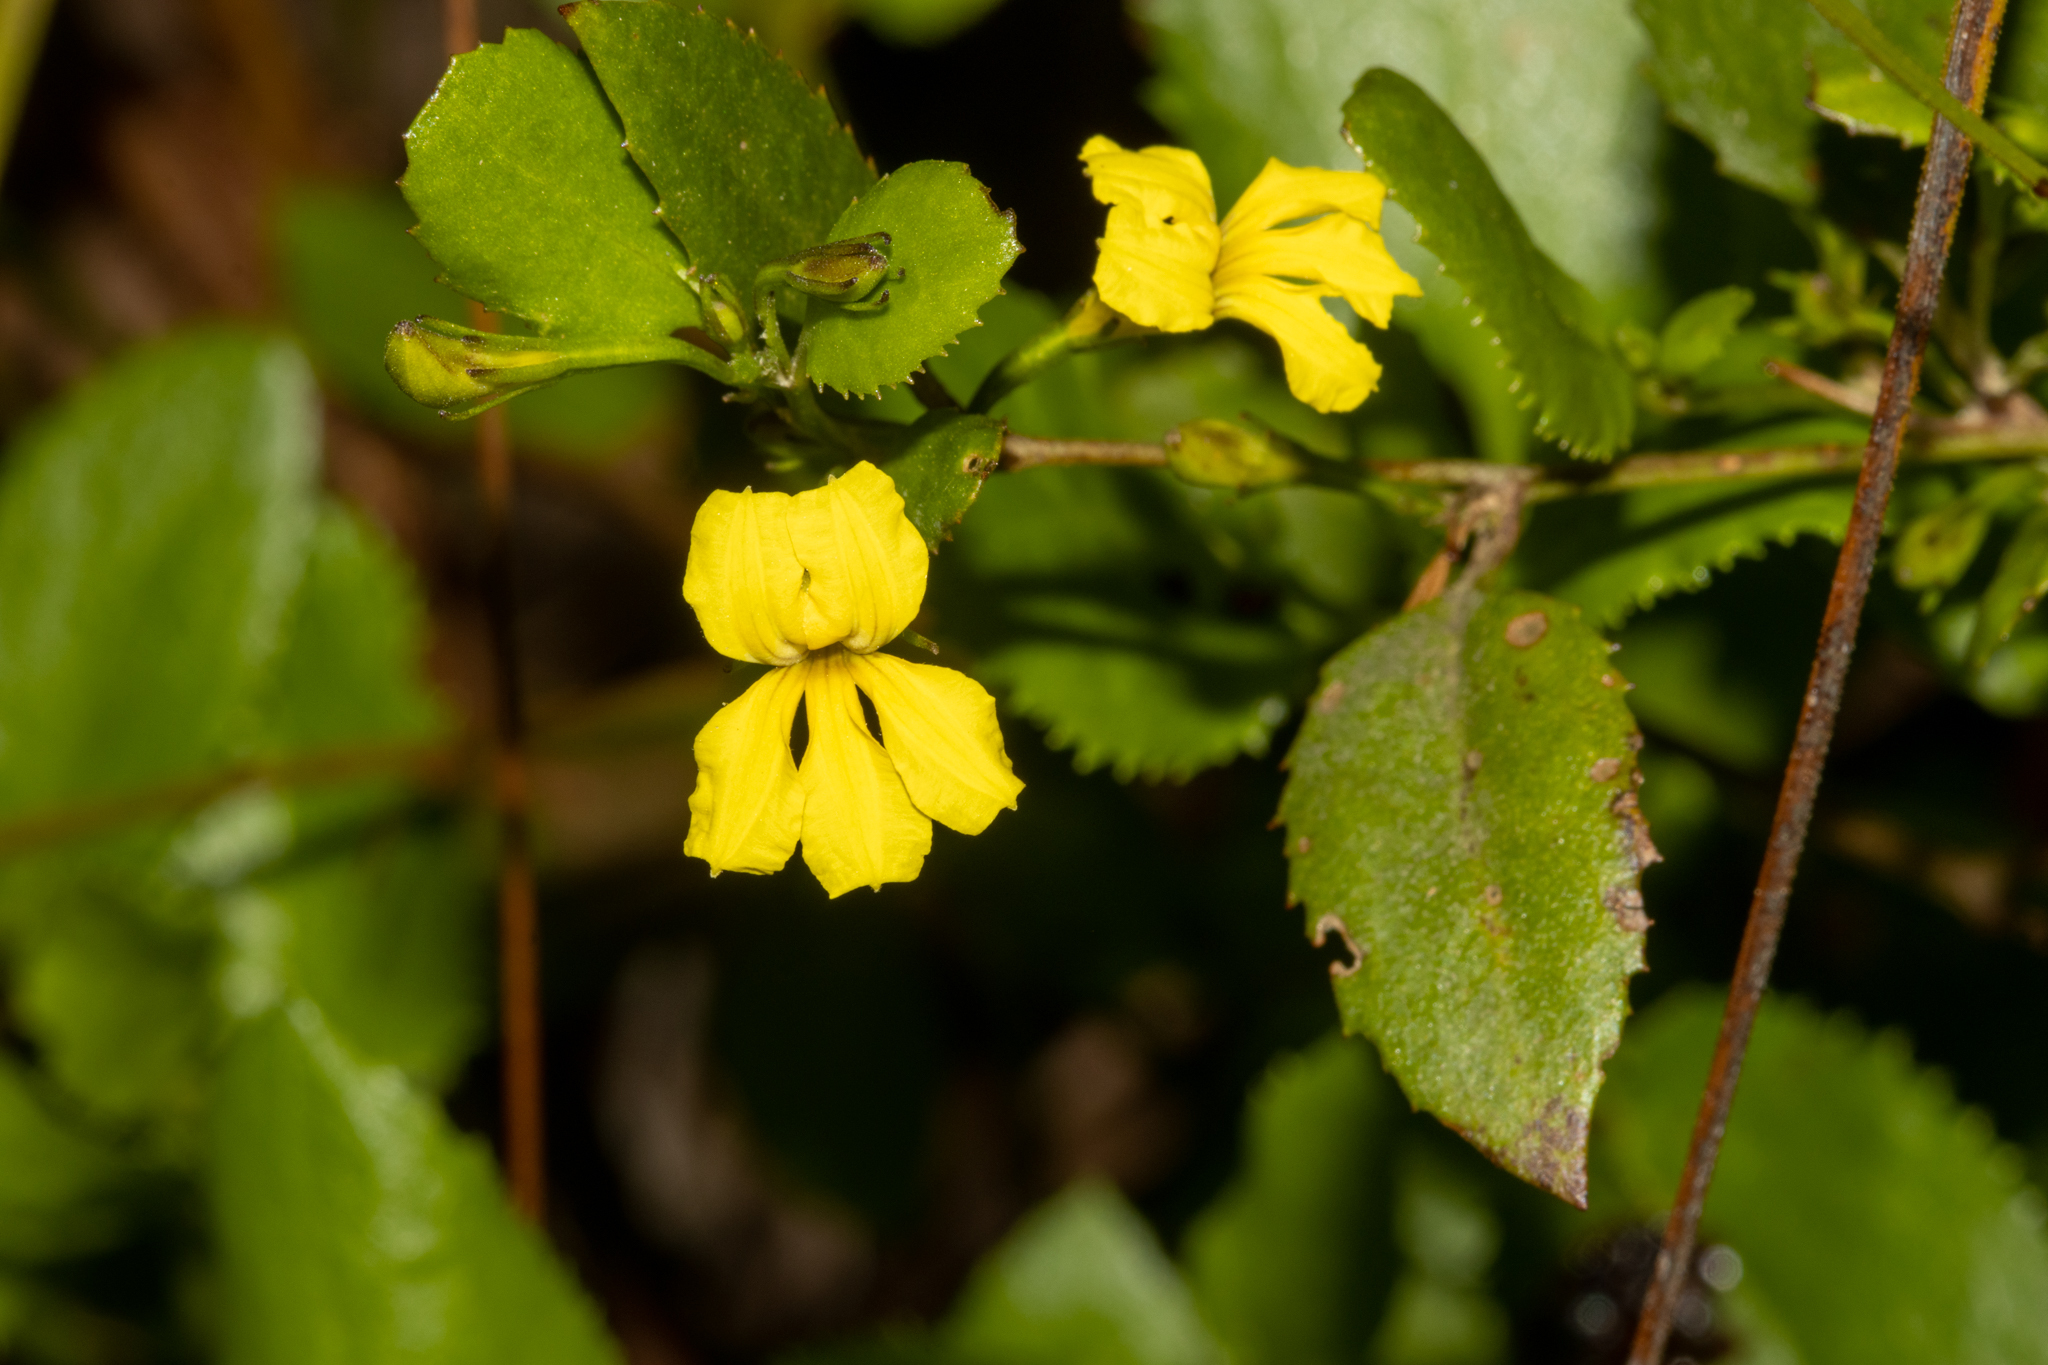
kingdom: Plantae
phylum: Tracheophyta
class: Magnoliopsida
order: Asterales
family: Goodeniaceae
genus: Goodenia
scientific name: Goodenia ovata
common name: Hop goodenia
